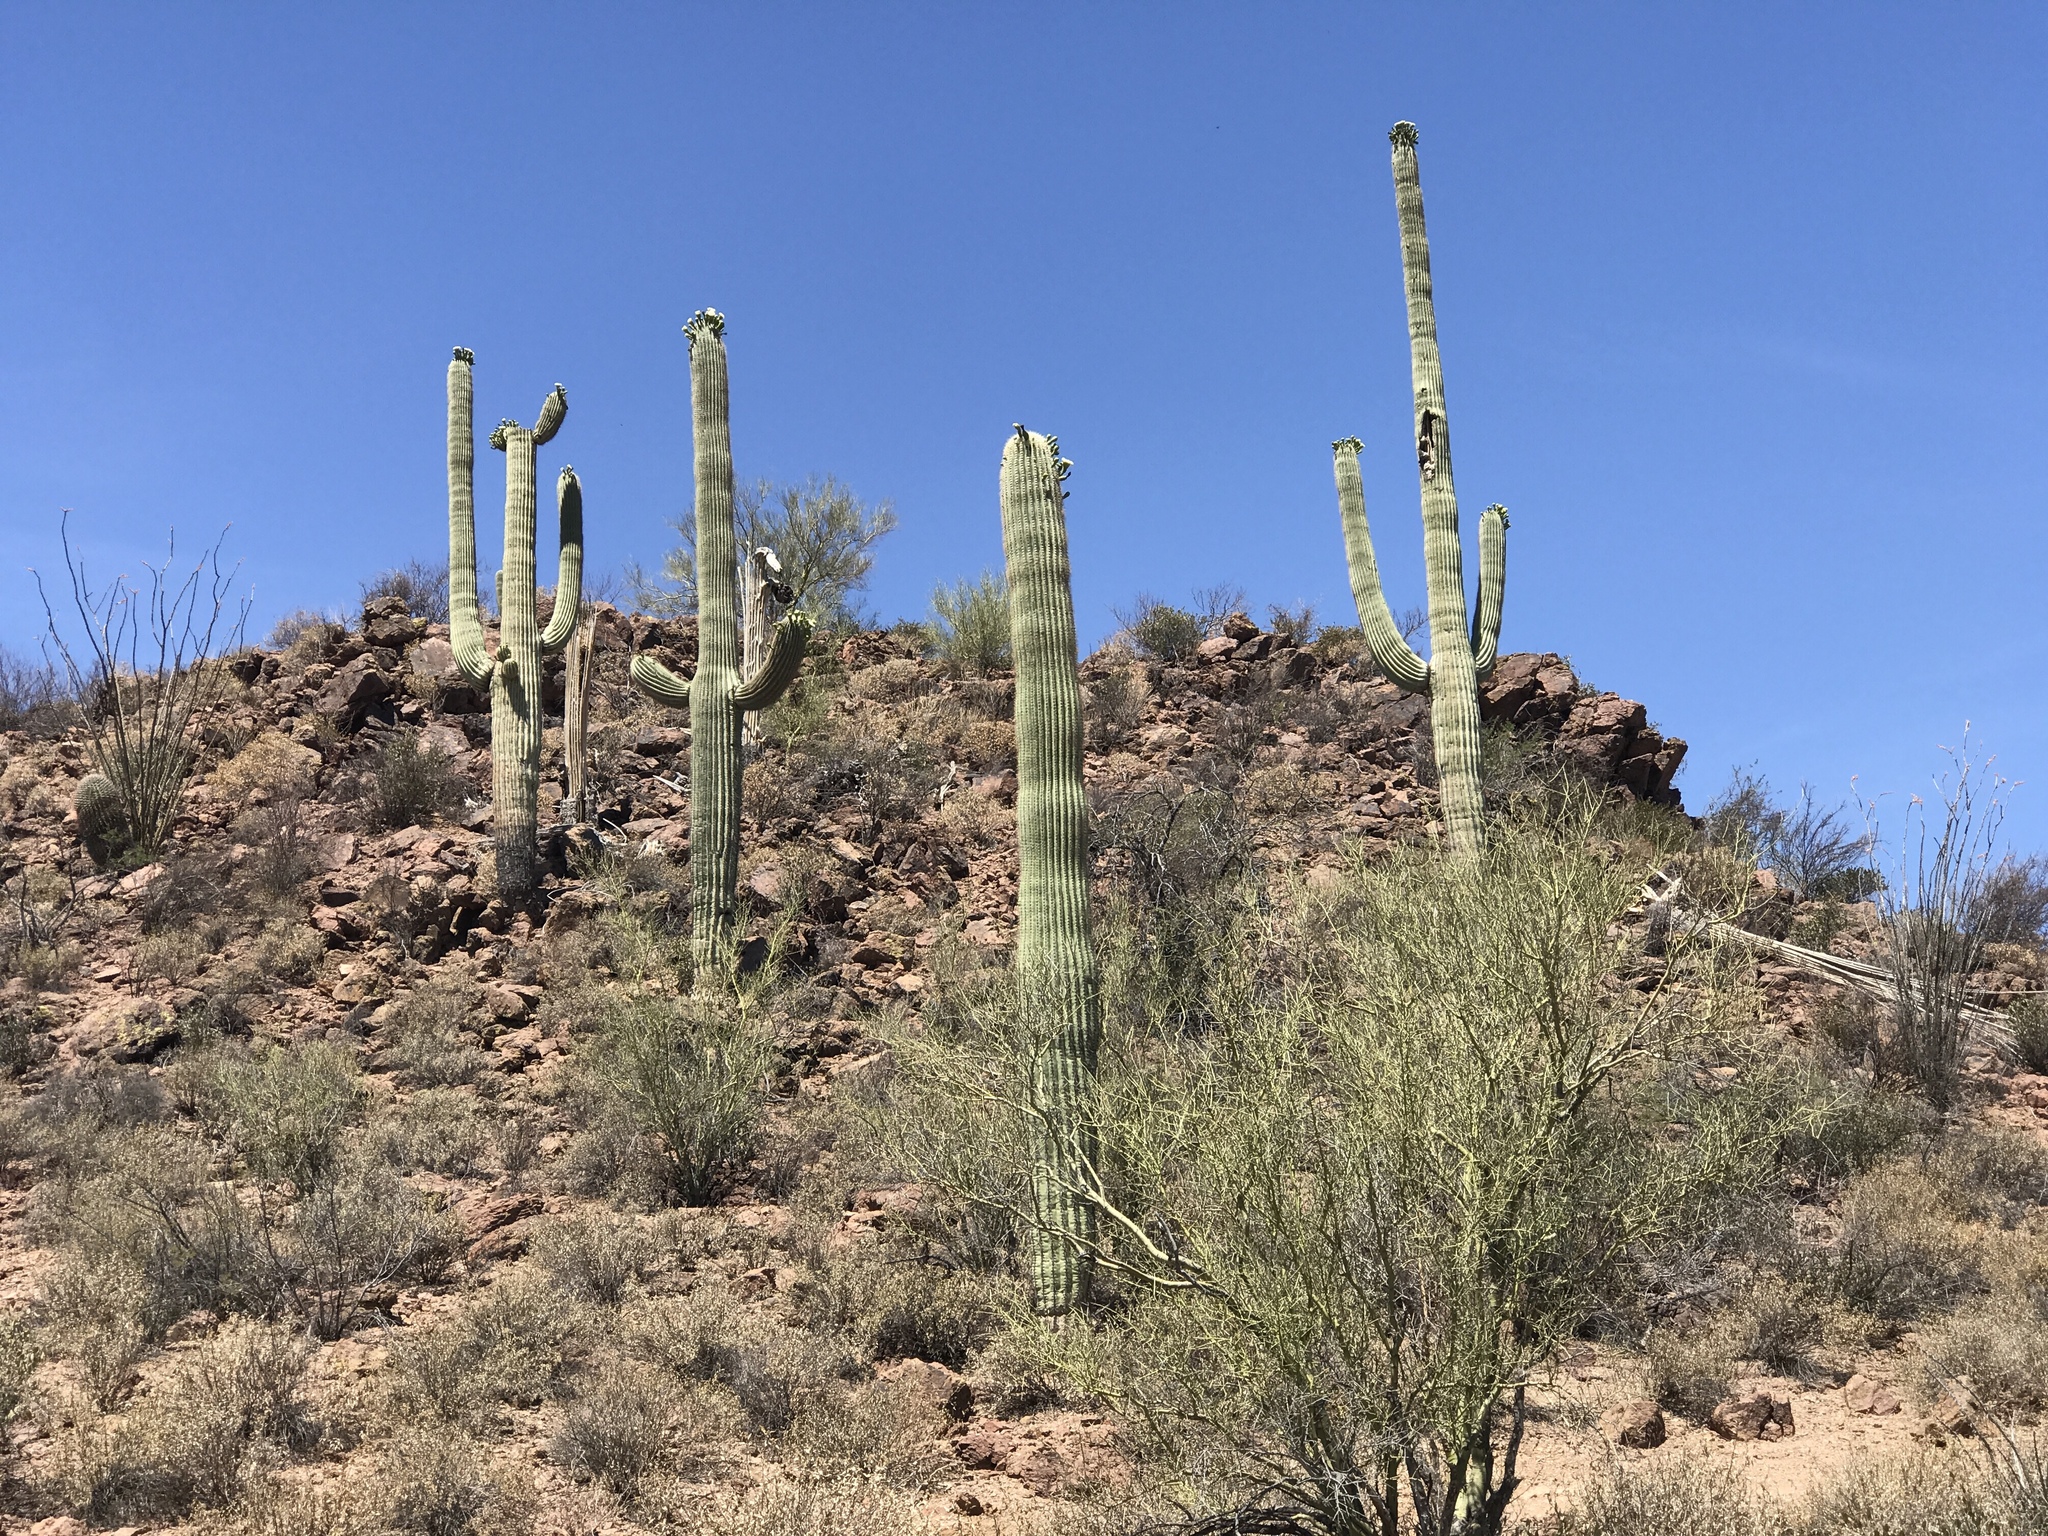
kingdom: Plantae
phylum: Tracheophyta
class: Magnoliopsida
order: Caryophyllales
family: Cactaceae
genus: Carnegiea
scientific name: Carnegiea gigantea
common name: Saguaro
